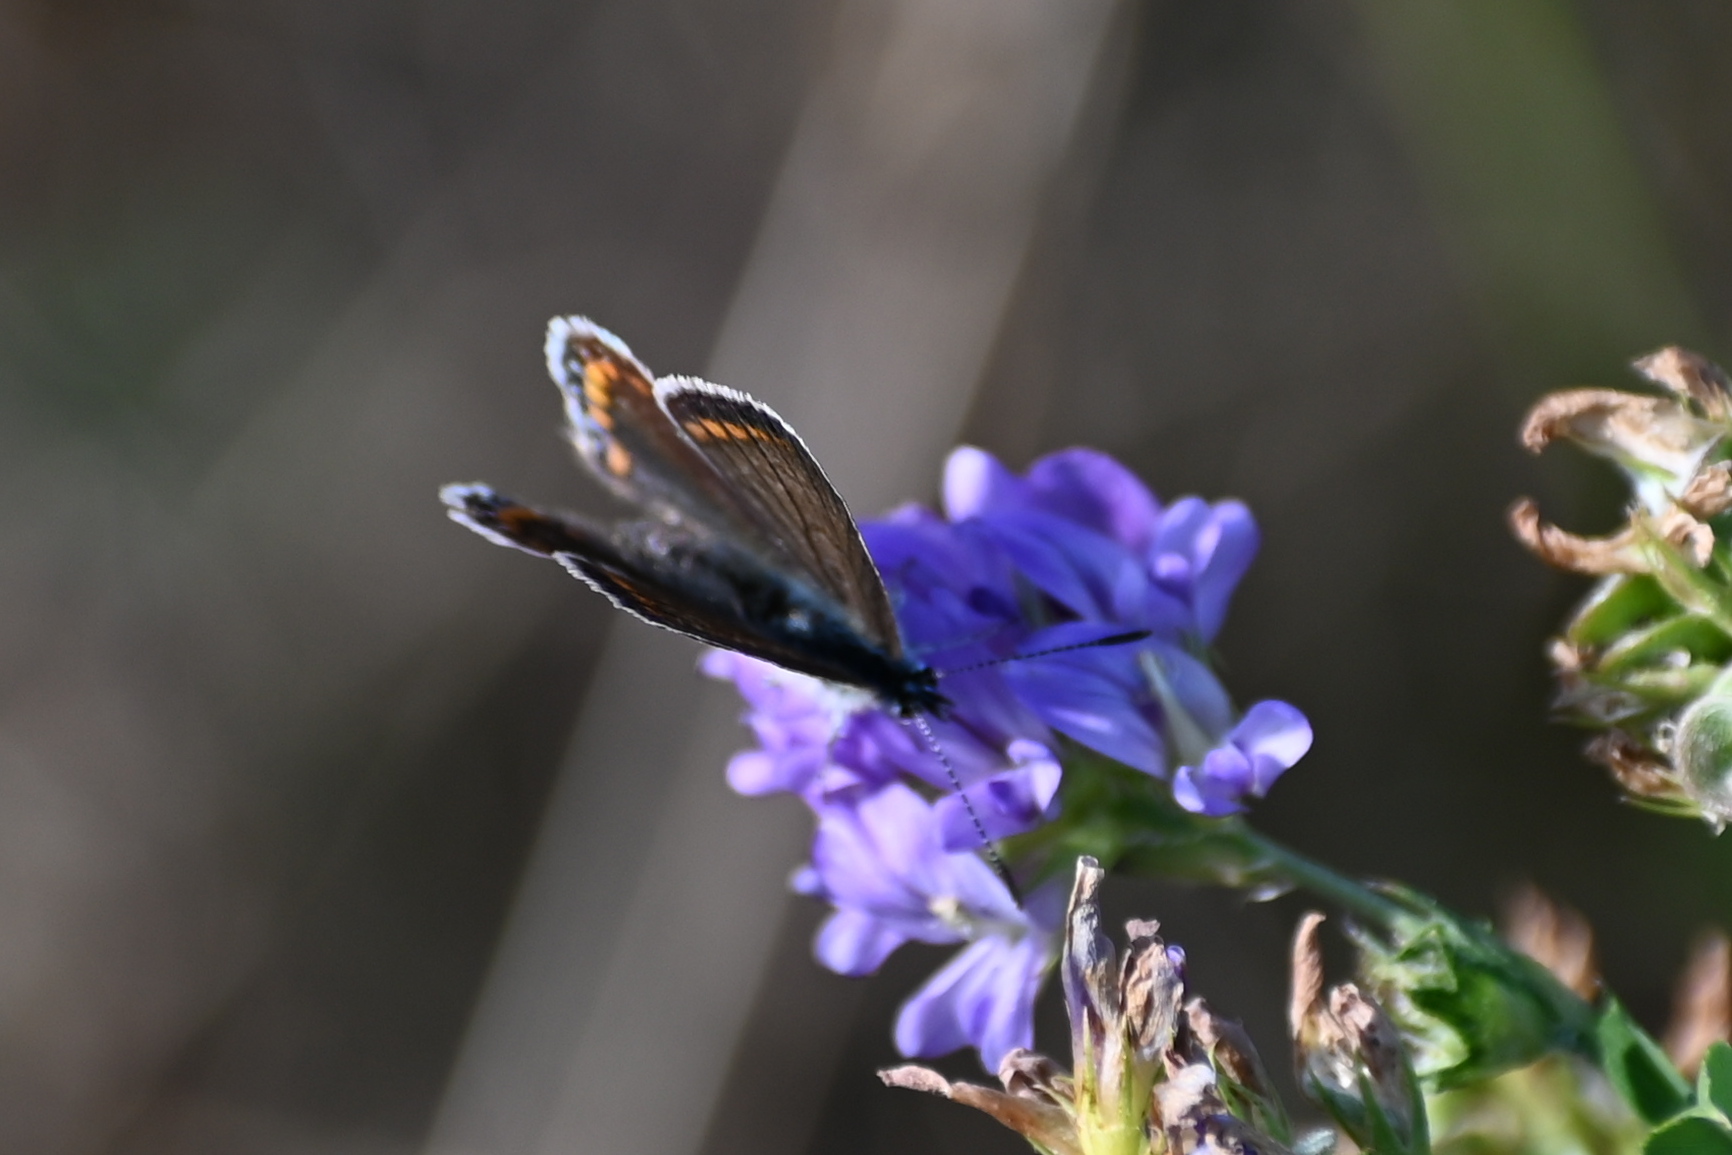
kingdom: Animalia
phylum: Arthropoda
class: Insecta
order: Lepidoptera
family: Lycaenidae
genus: Polyommatus
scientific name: Polyommatus icarus
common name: Common blue
